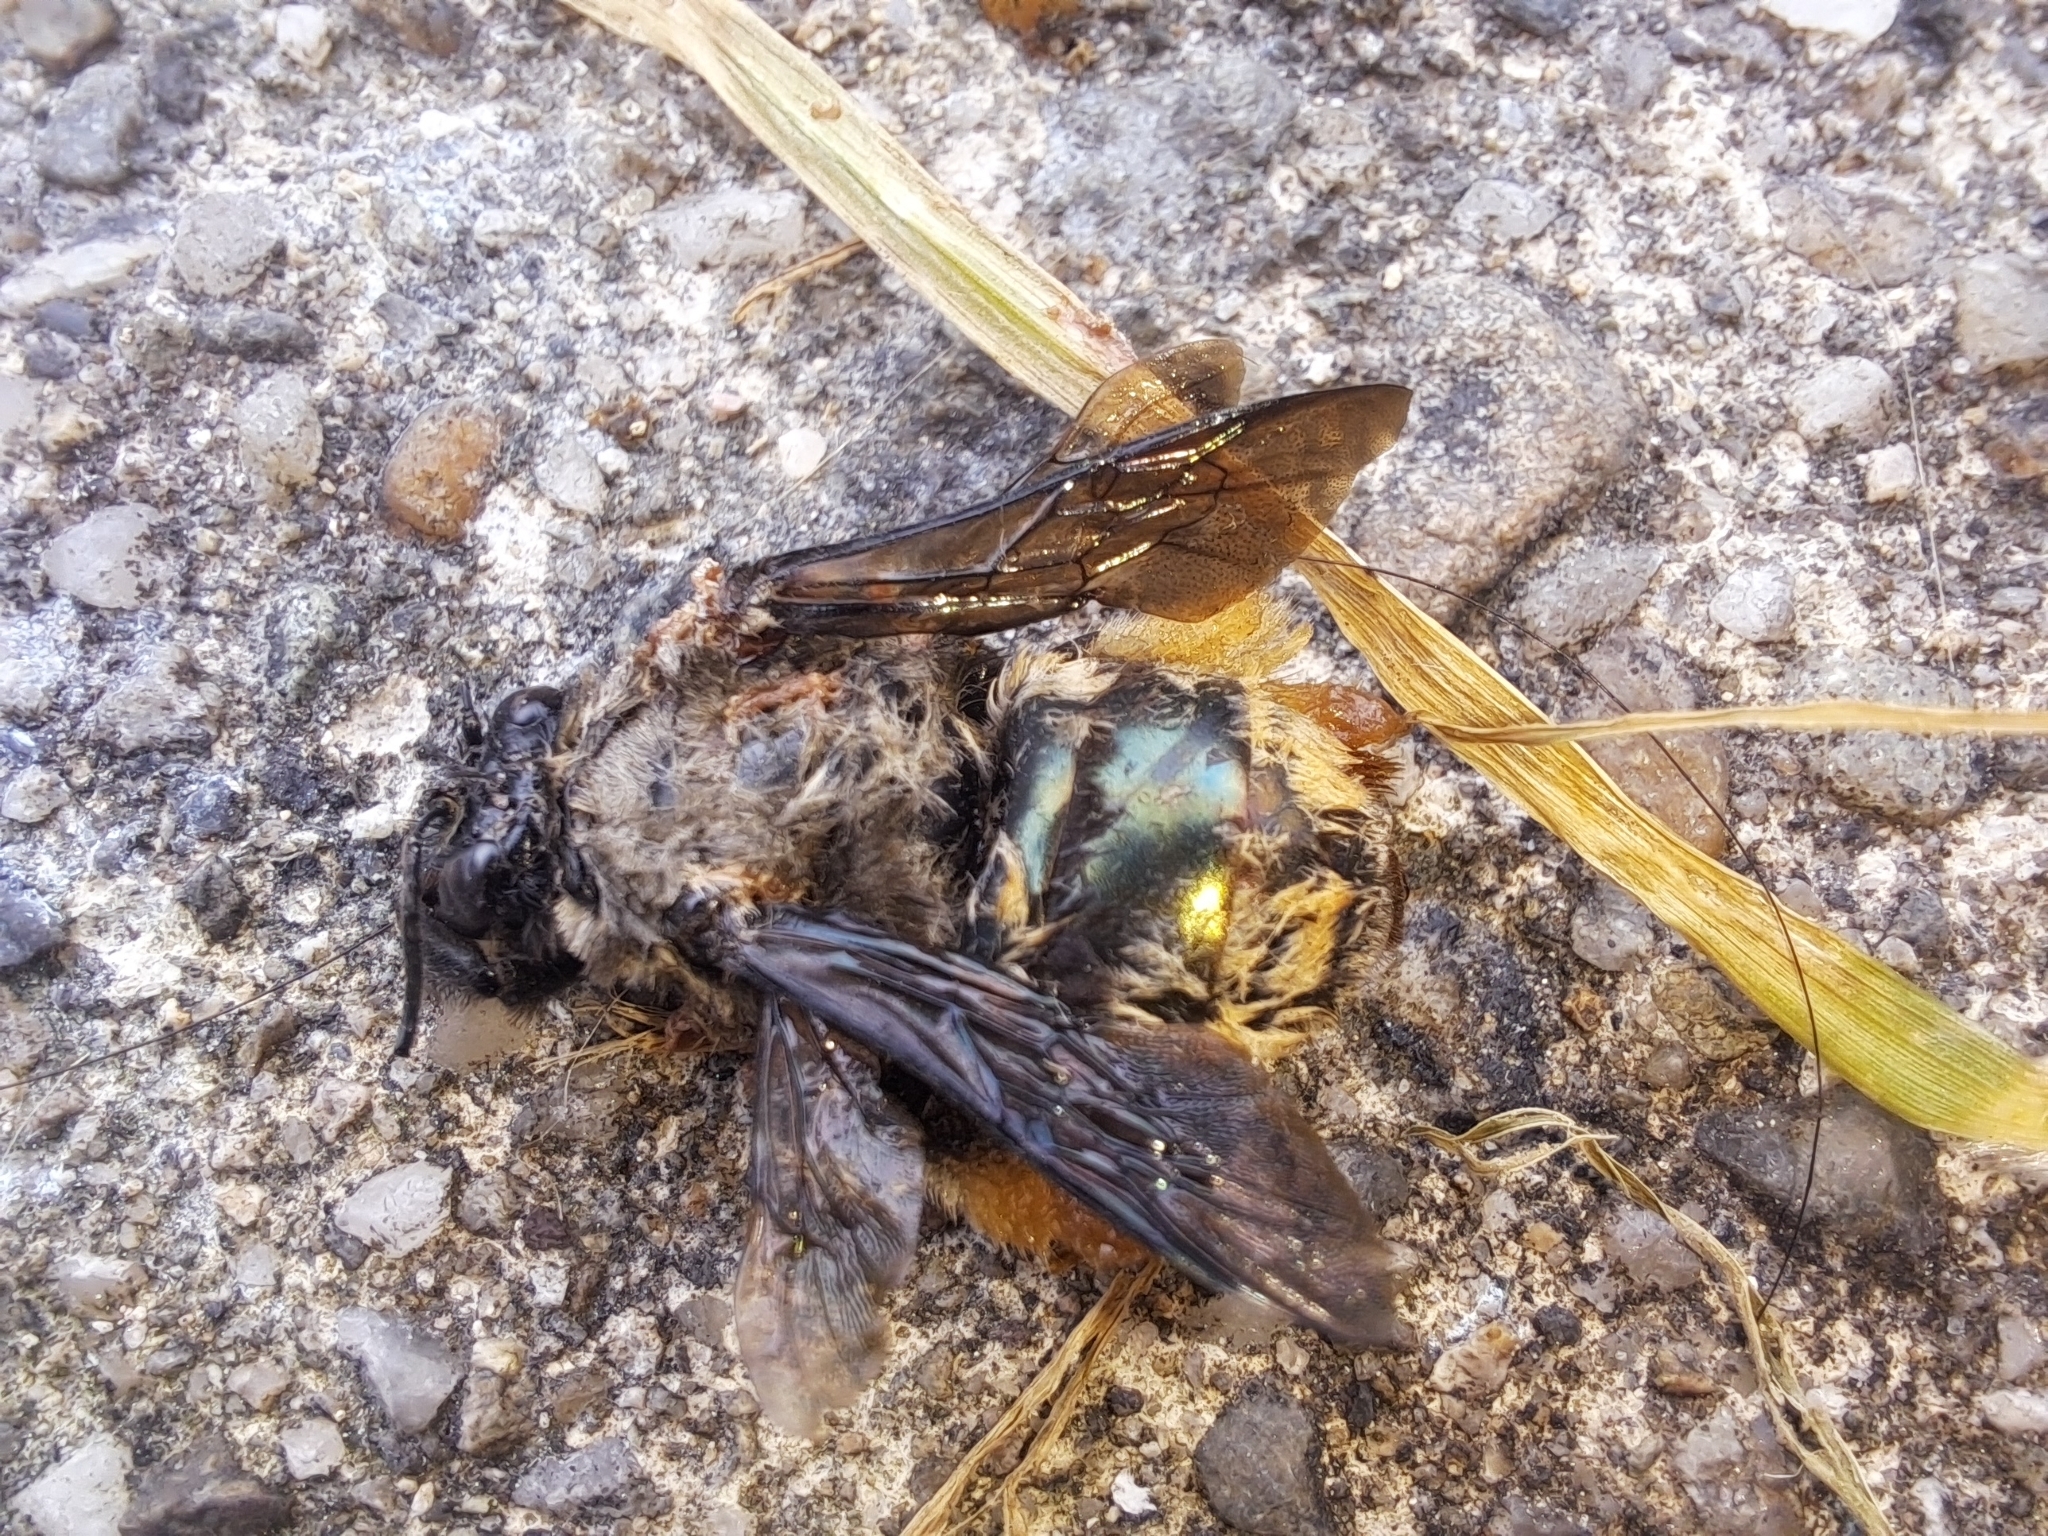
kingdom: Animalia
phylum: Arthropoda
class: Insecta
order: Hymenoptera
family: Apidae
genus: Centris
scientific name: Centris festiva
